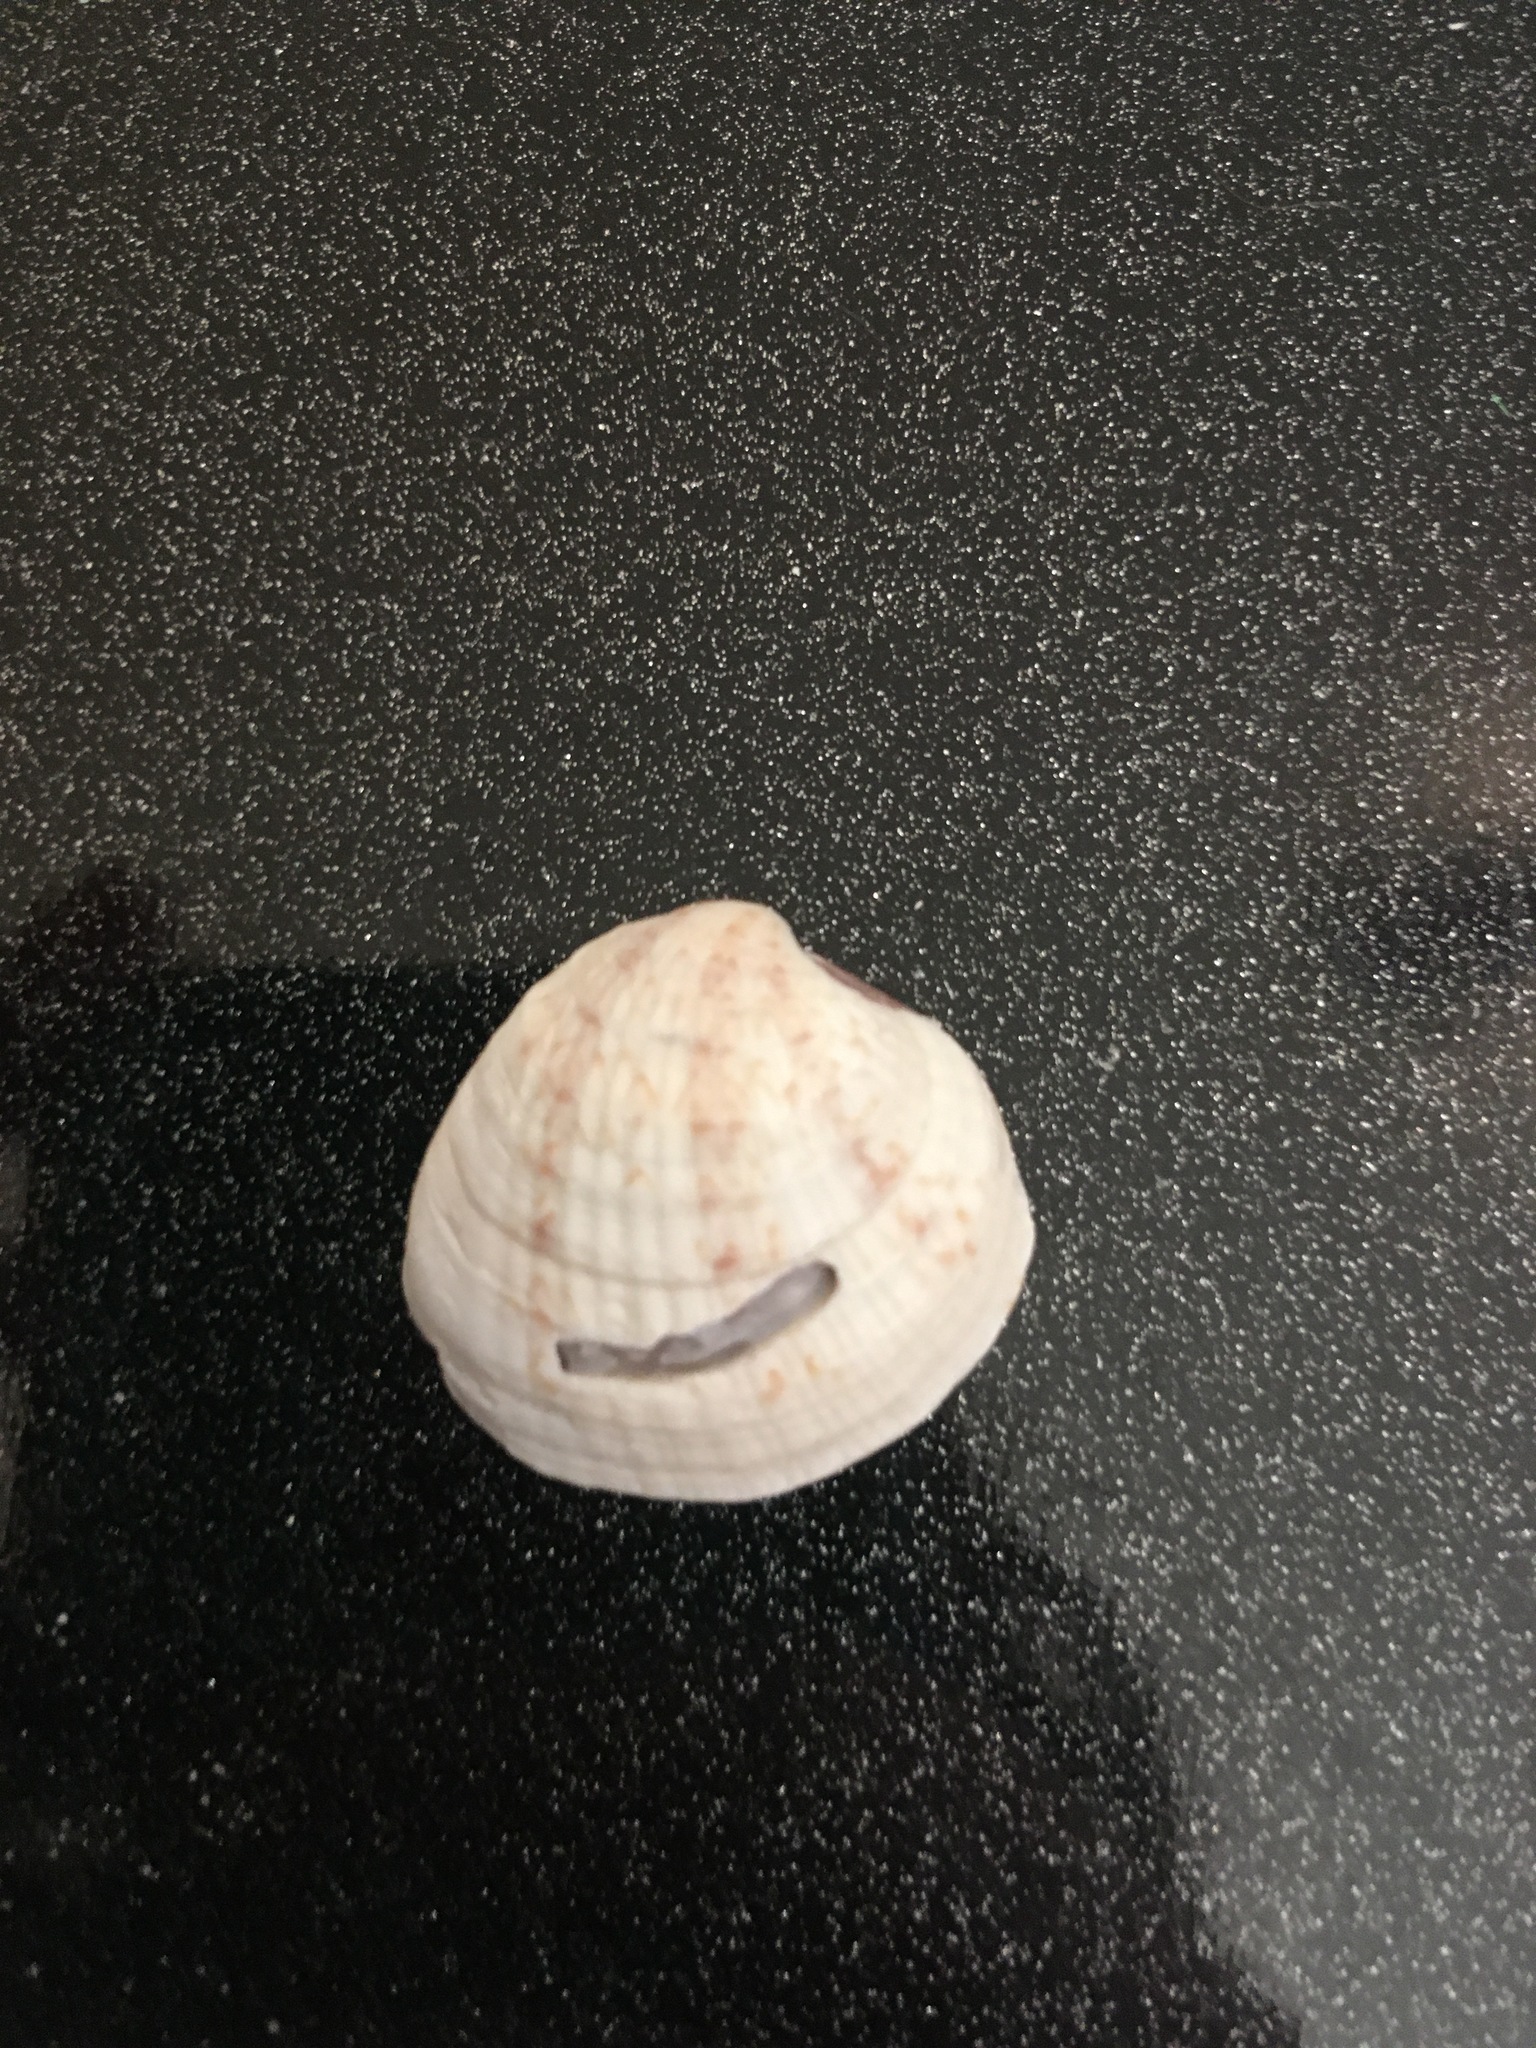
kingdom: Animalia
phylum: Mollusca
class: Bivalvia
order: Venerida
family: Veneridae
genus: Chione
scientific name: Chione elevata
